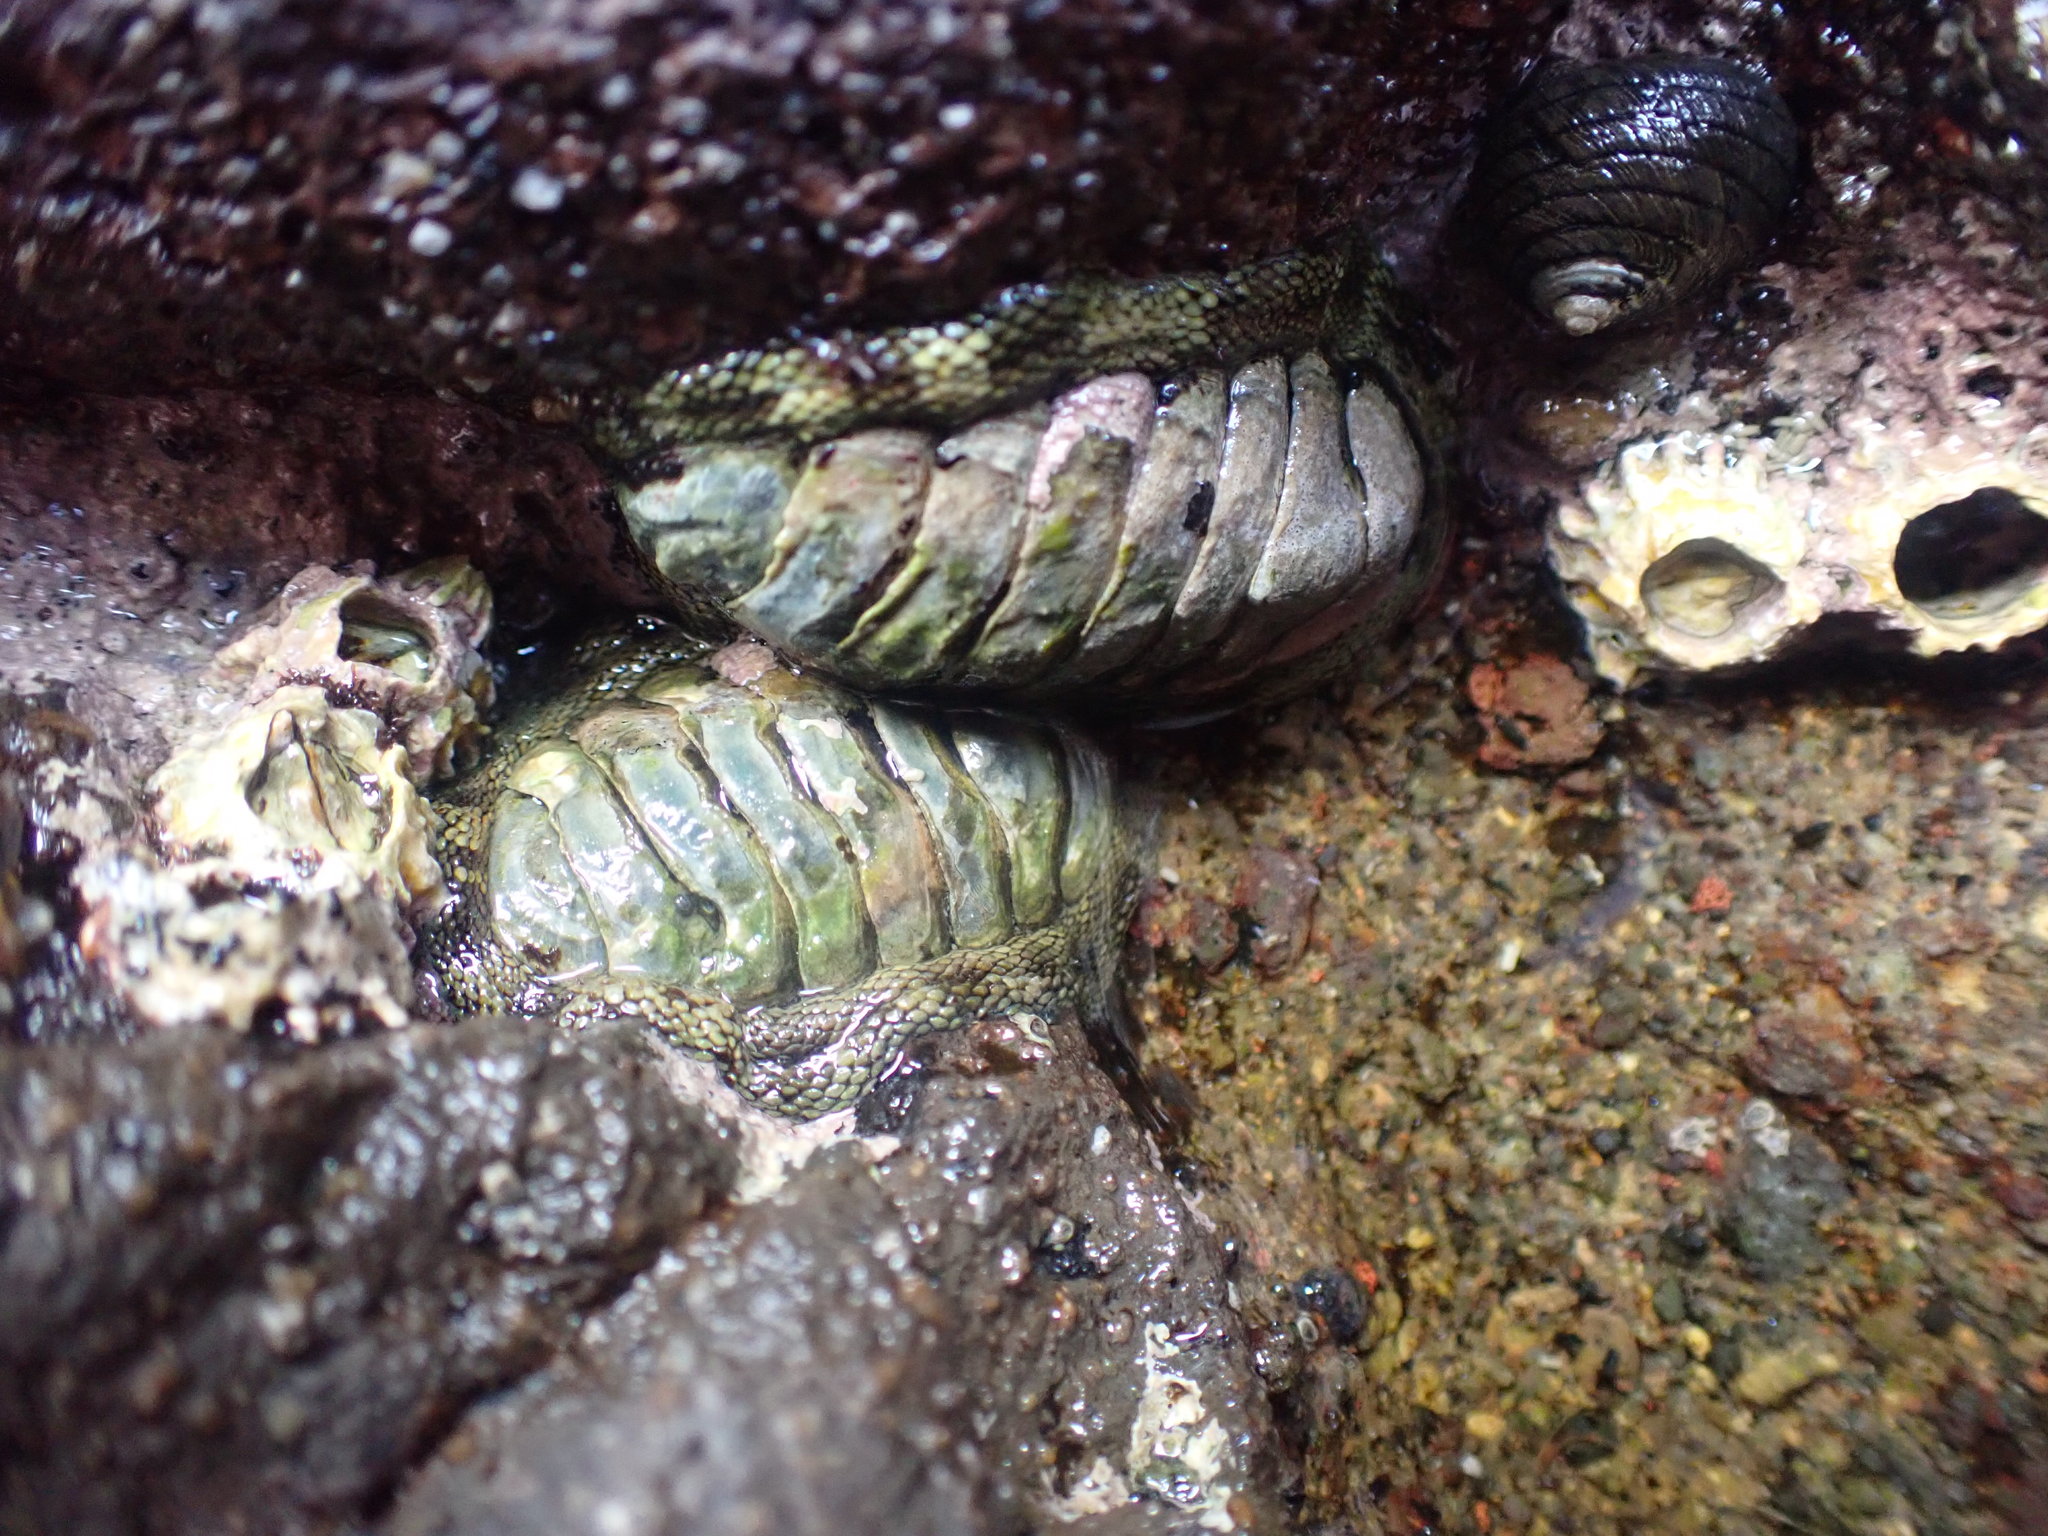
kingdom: Animalia
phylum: Mollusca
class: Polyplacophora
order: Chitonida
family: Chitonidae
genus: Sypharochiton
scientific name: Sypharochiton pelliserpentis
